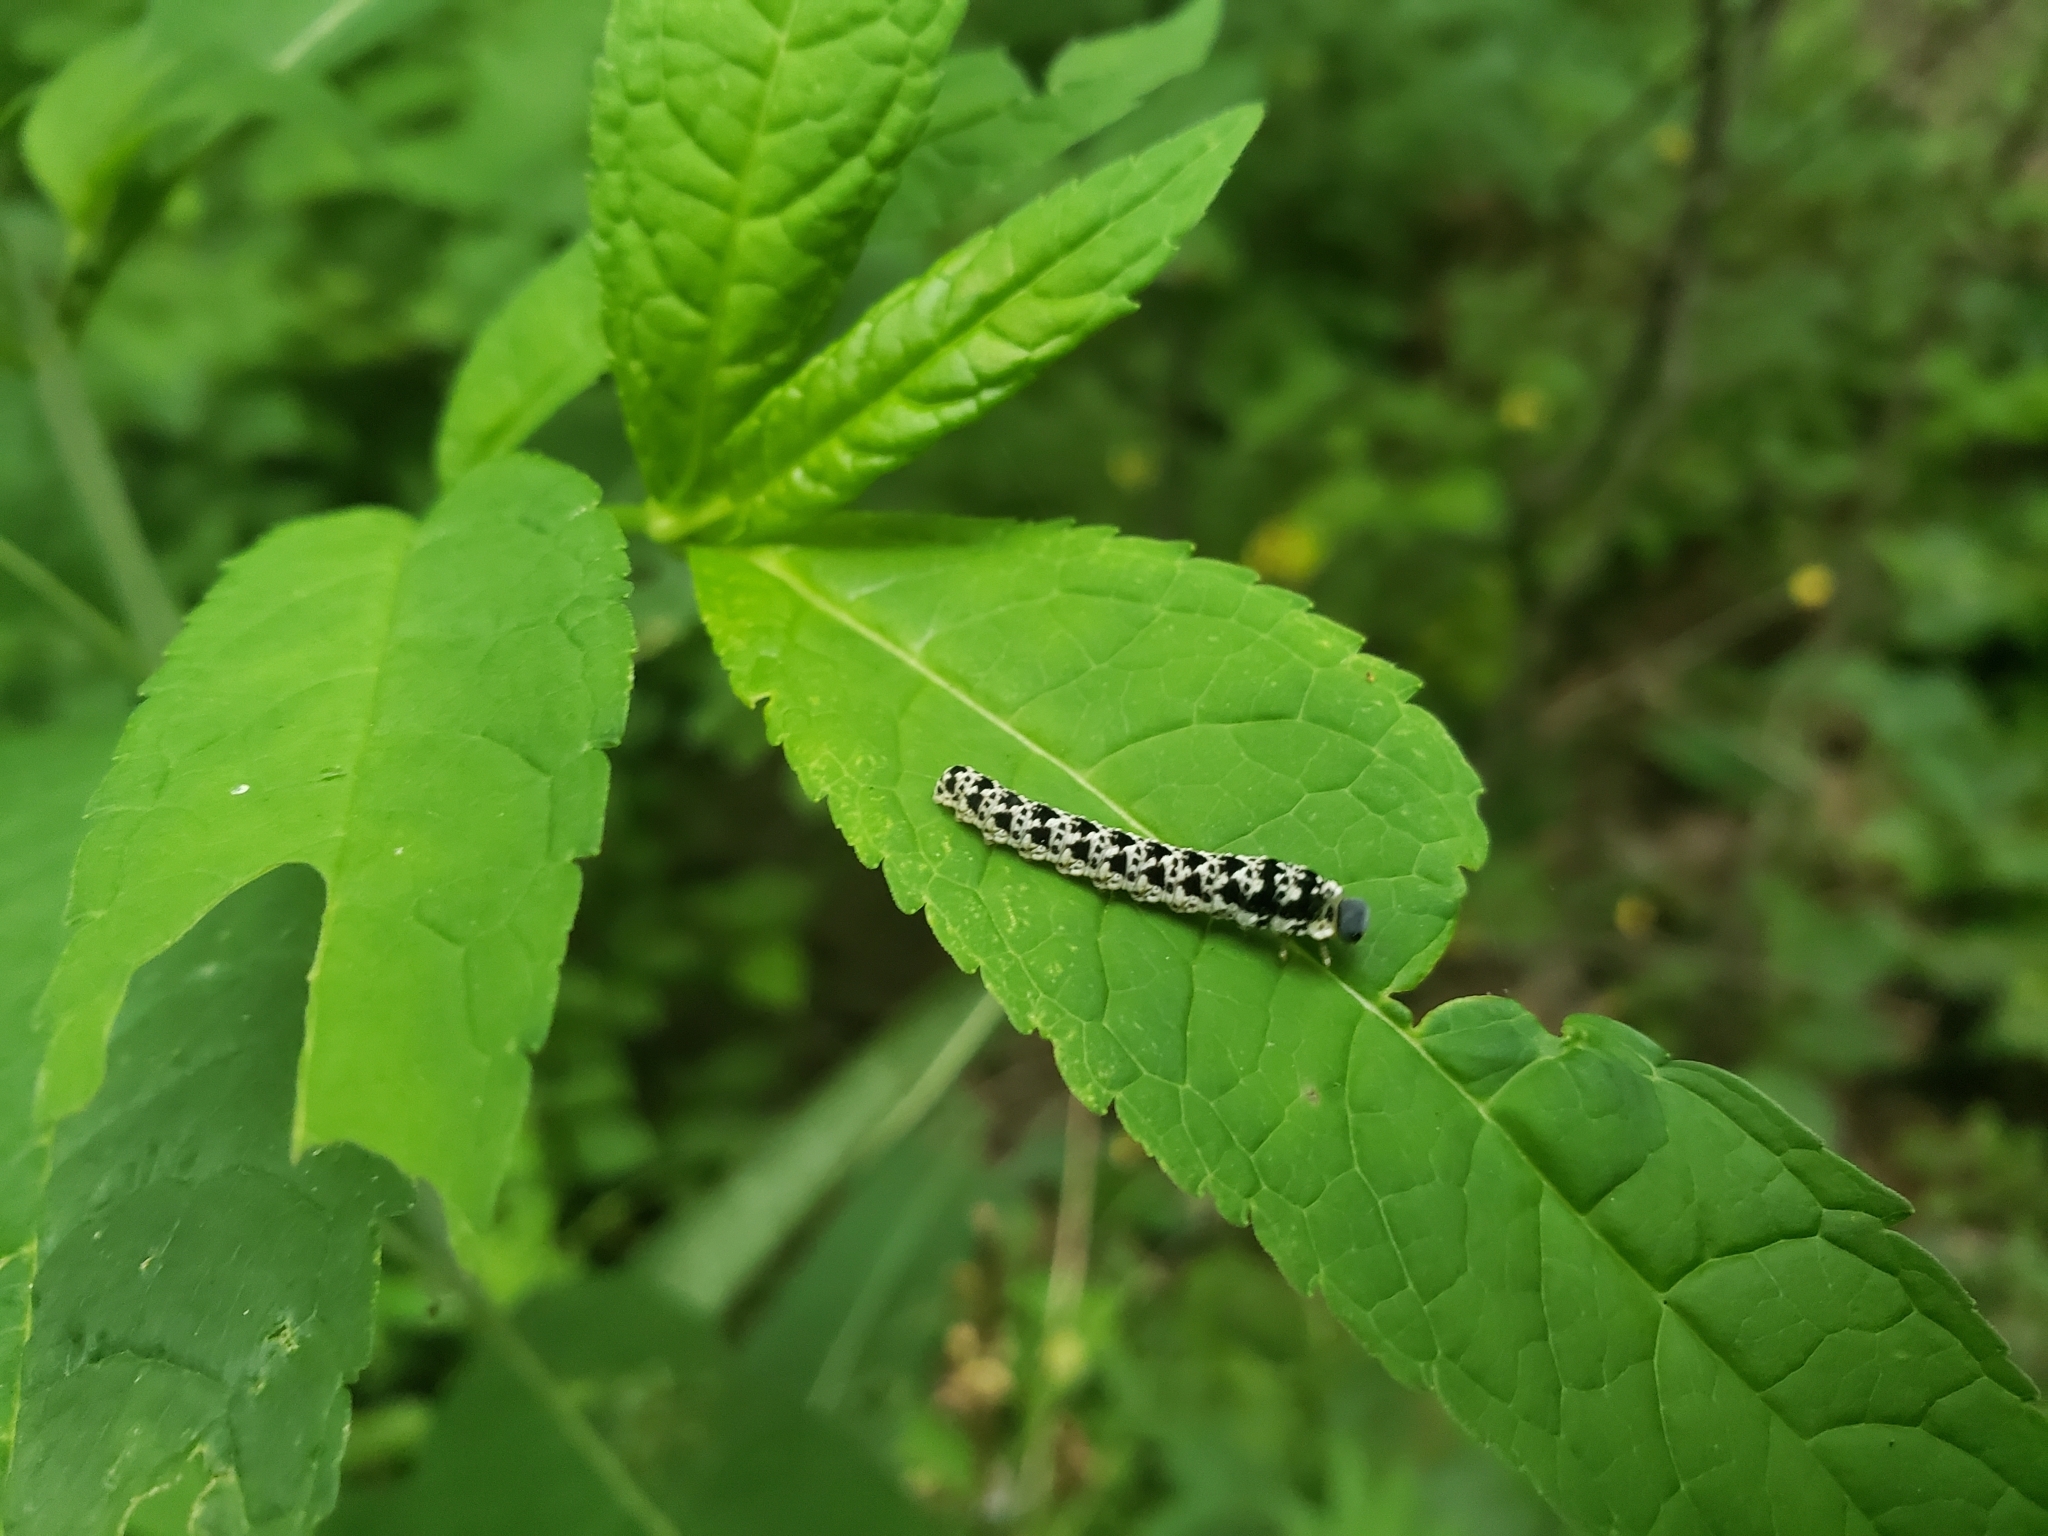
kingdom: Animalia
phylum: Arthropoda
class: Insecta
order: Hymenoptera
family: Tenthredinidae
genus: Tenthredo
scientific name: Tenthredo
